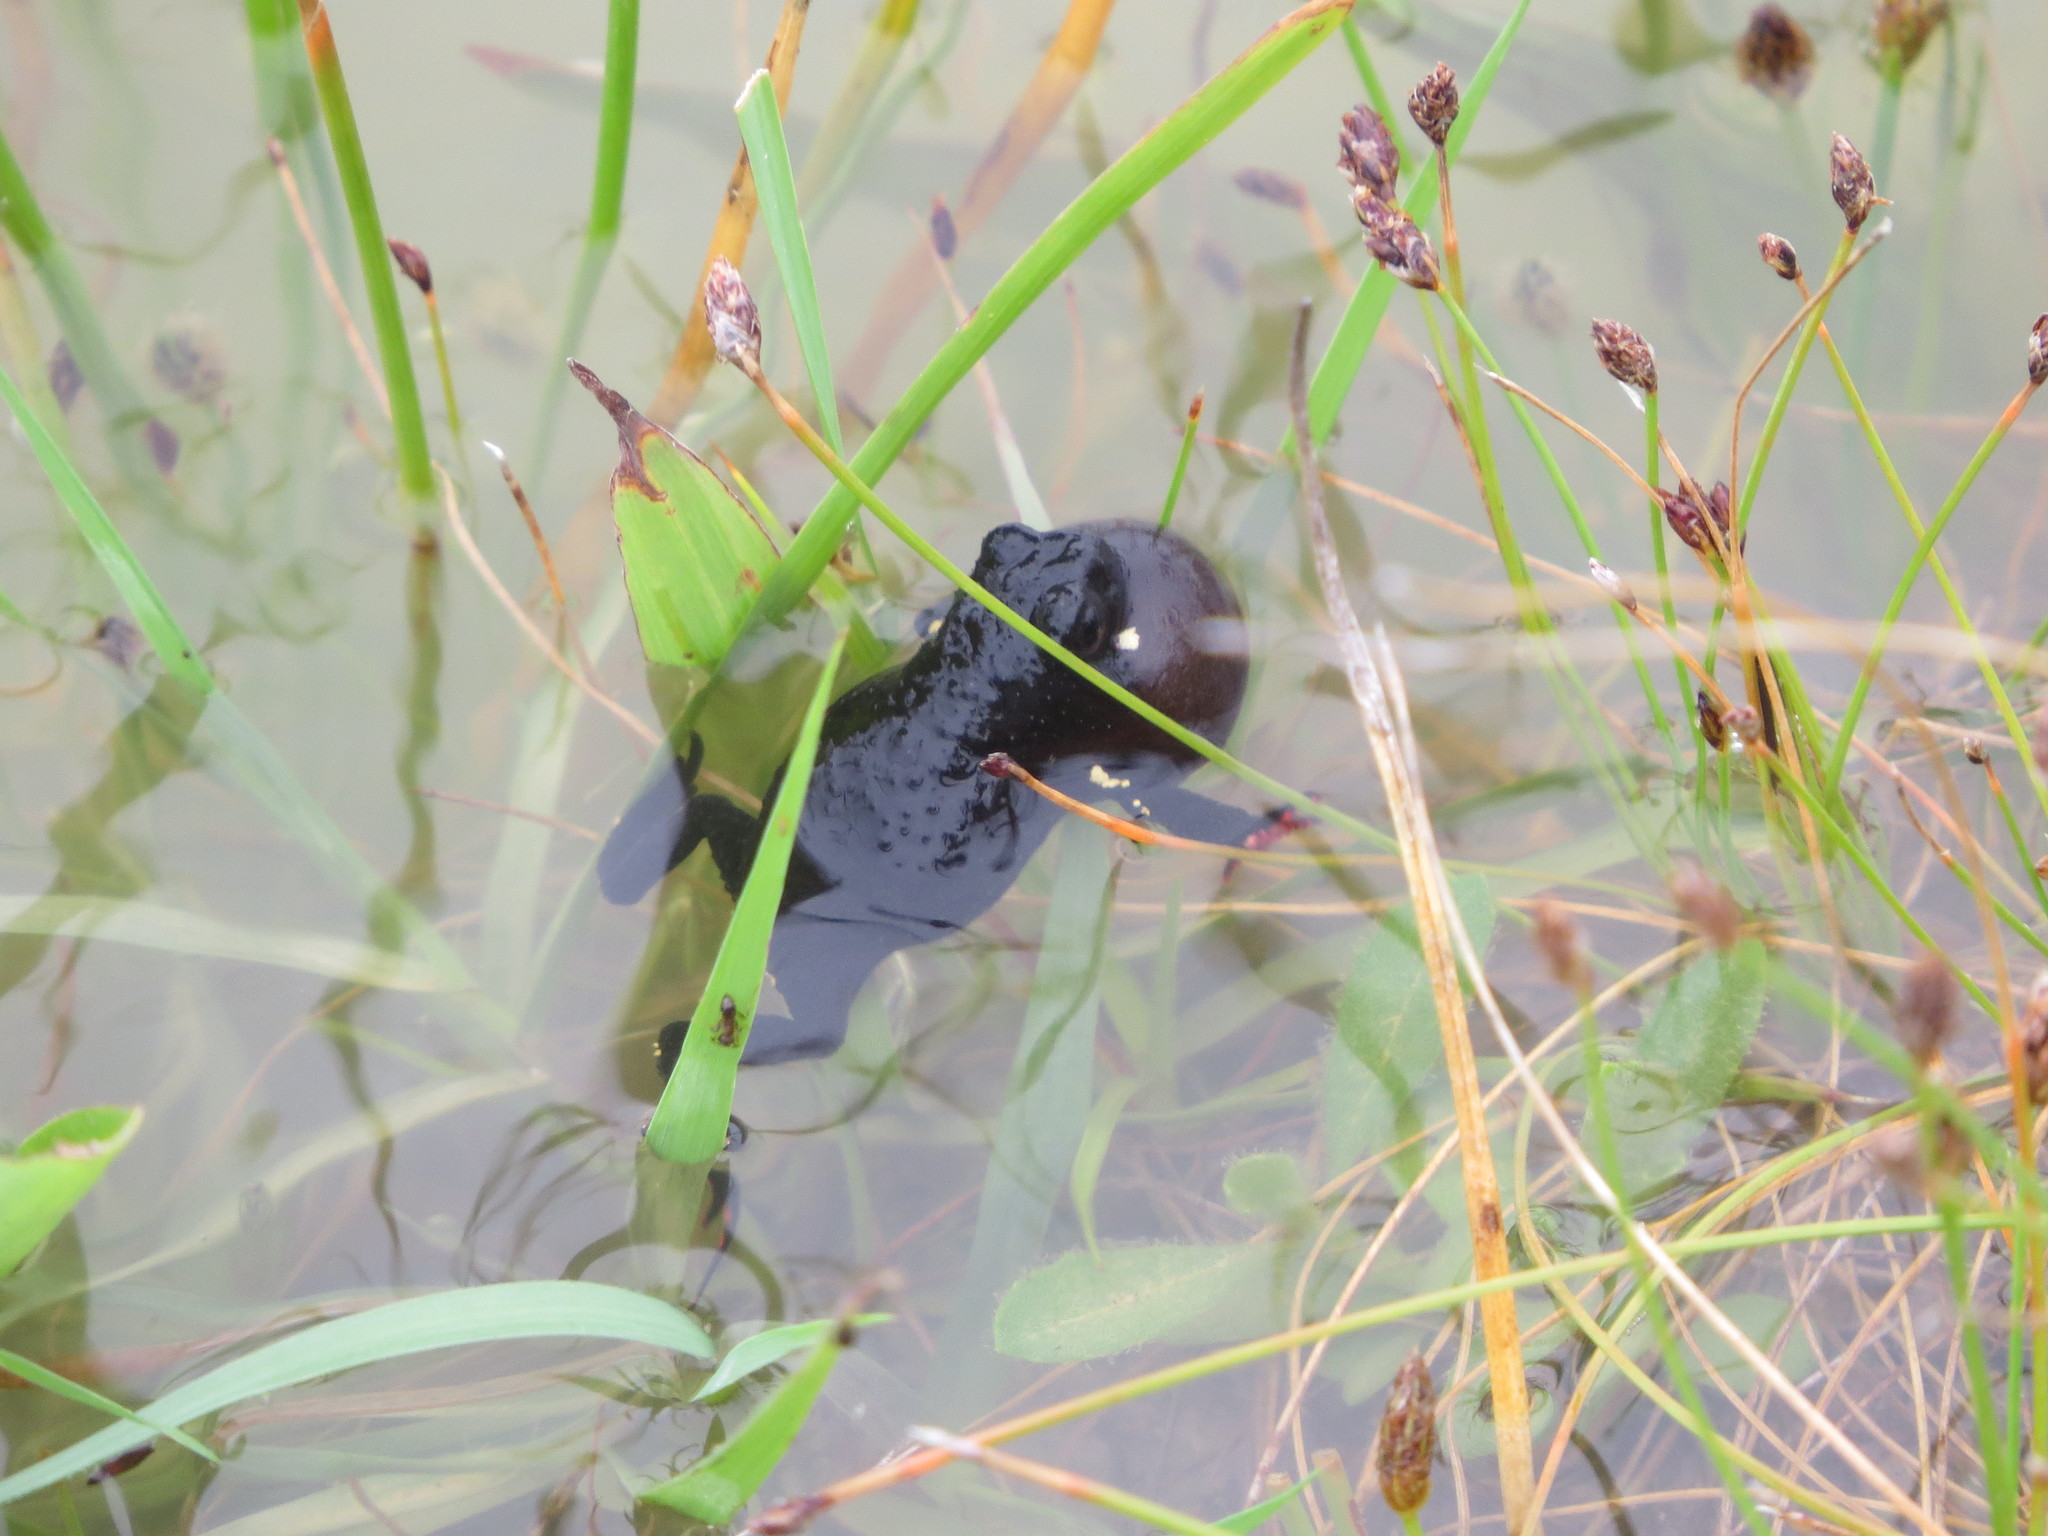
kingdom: Animalia
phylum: Chordata
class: Amphibia
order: Anura
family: Bufonidae
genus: Melanophryniscus
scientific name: Melanophryniscus montevidensis
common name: Montevideo redbelly toad
